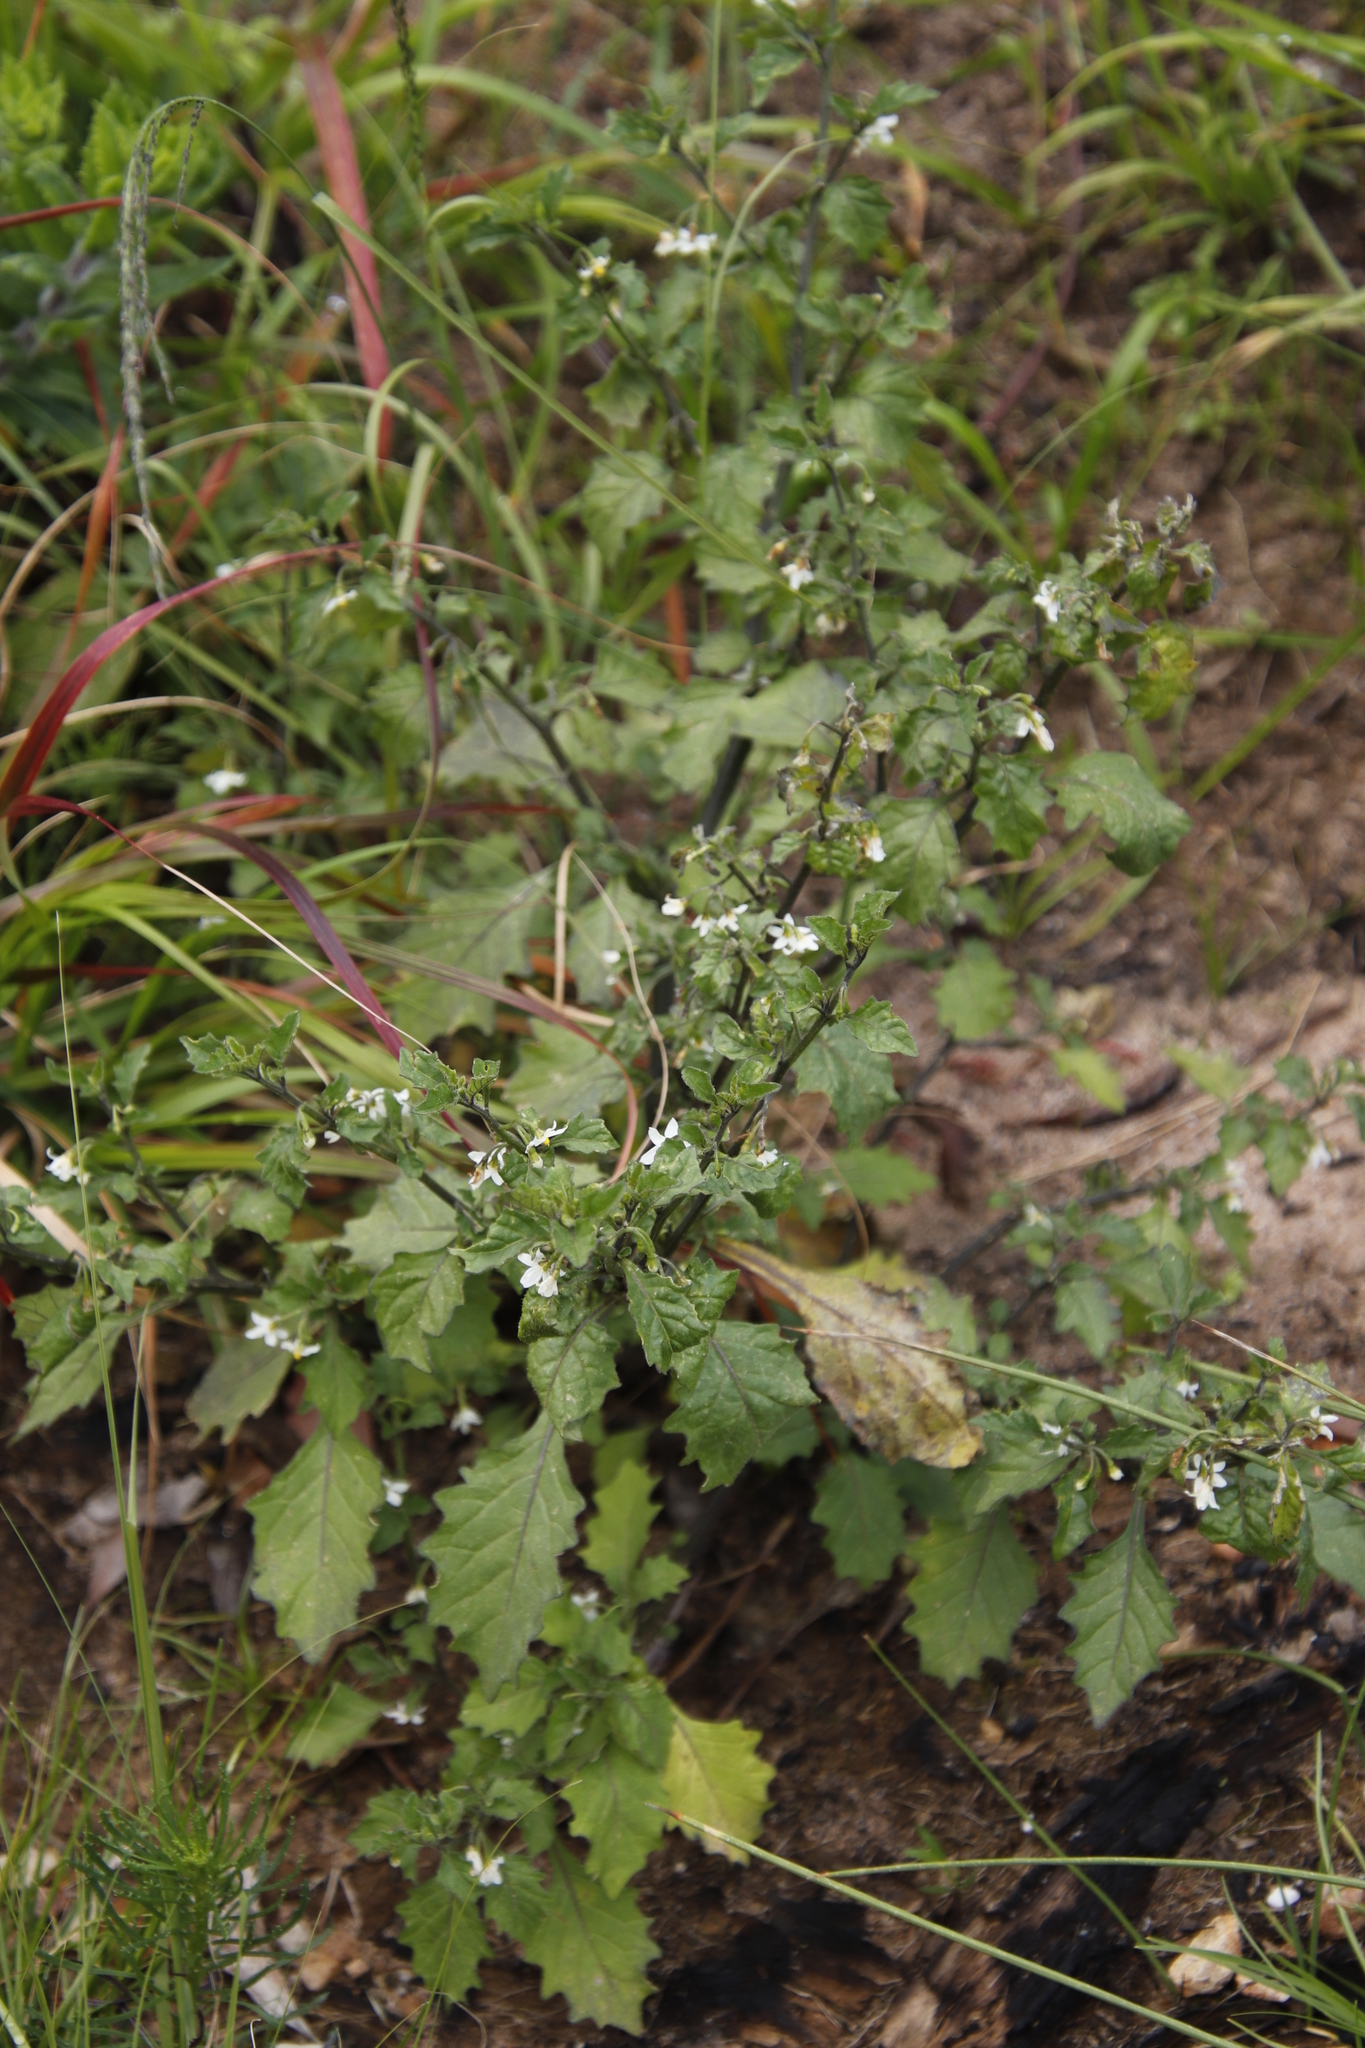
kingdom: Plantae
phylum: Tracheophyta
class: Magnoliopsida
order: Solanales
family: Solanaceae
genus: Solanum
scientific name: Solanum retroflexum
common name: Wonderberry
